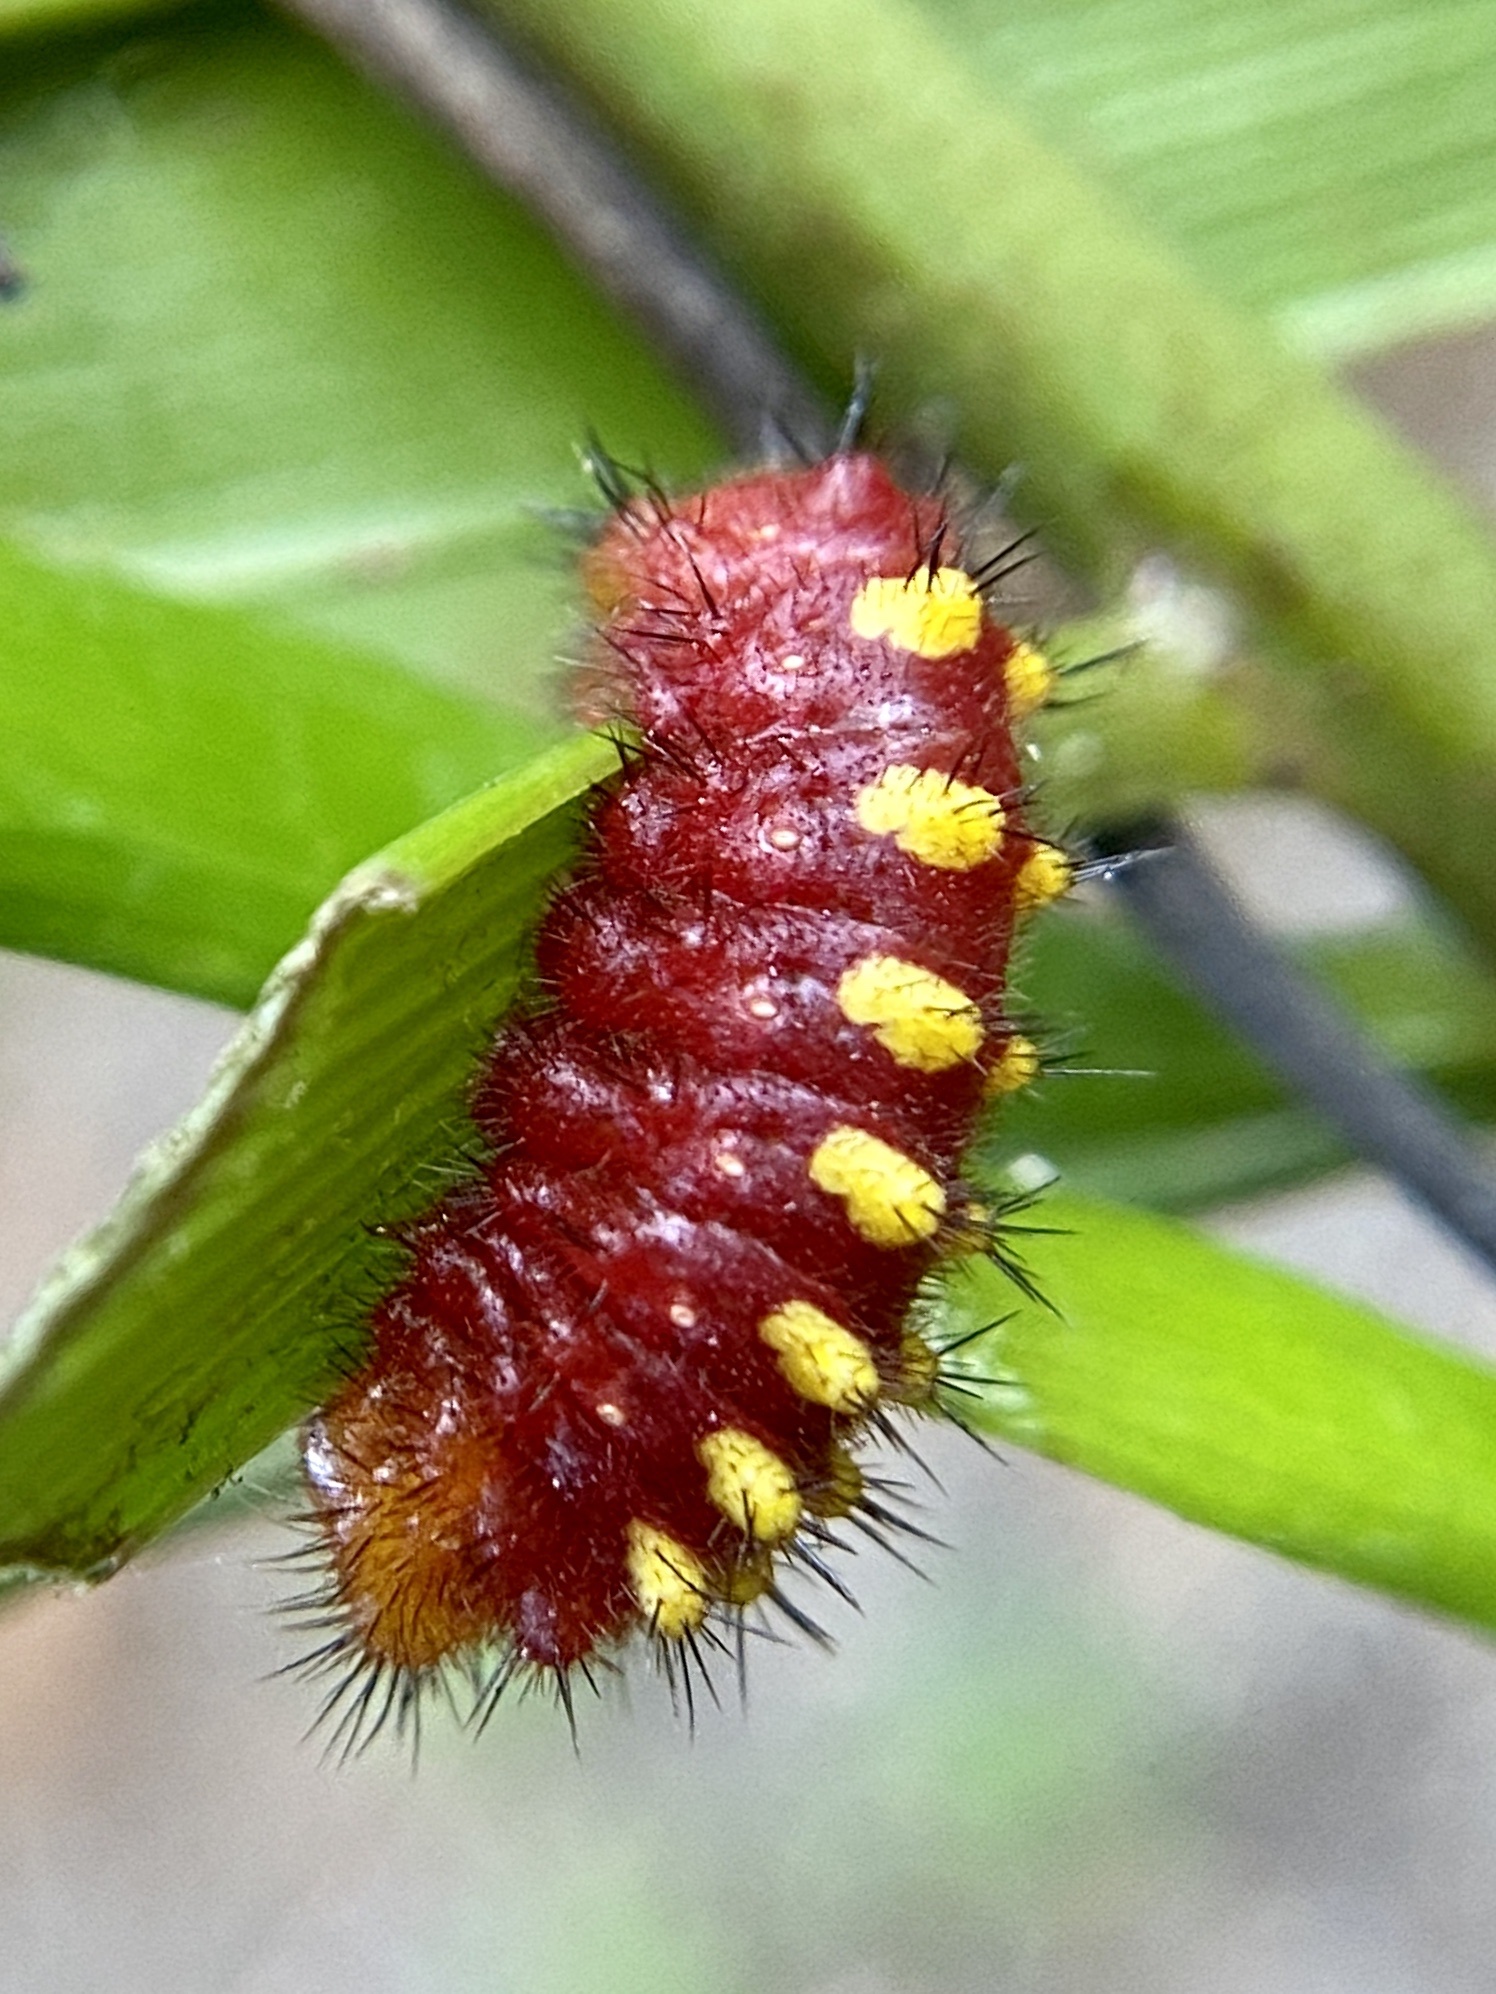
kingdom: Animalia
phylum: Arthropoda
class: Insecta
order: Lepidoptera
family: Lycaenidae
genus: Eumaeus
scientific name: Eumaeus atala
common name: Atala
